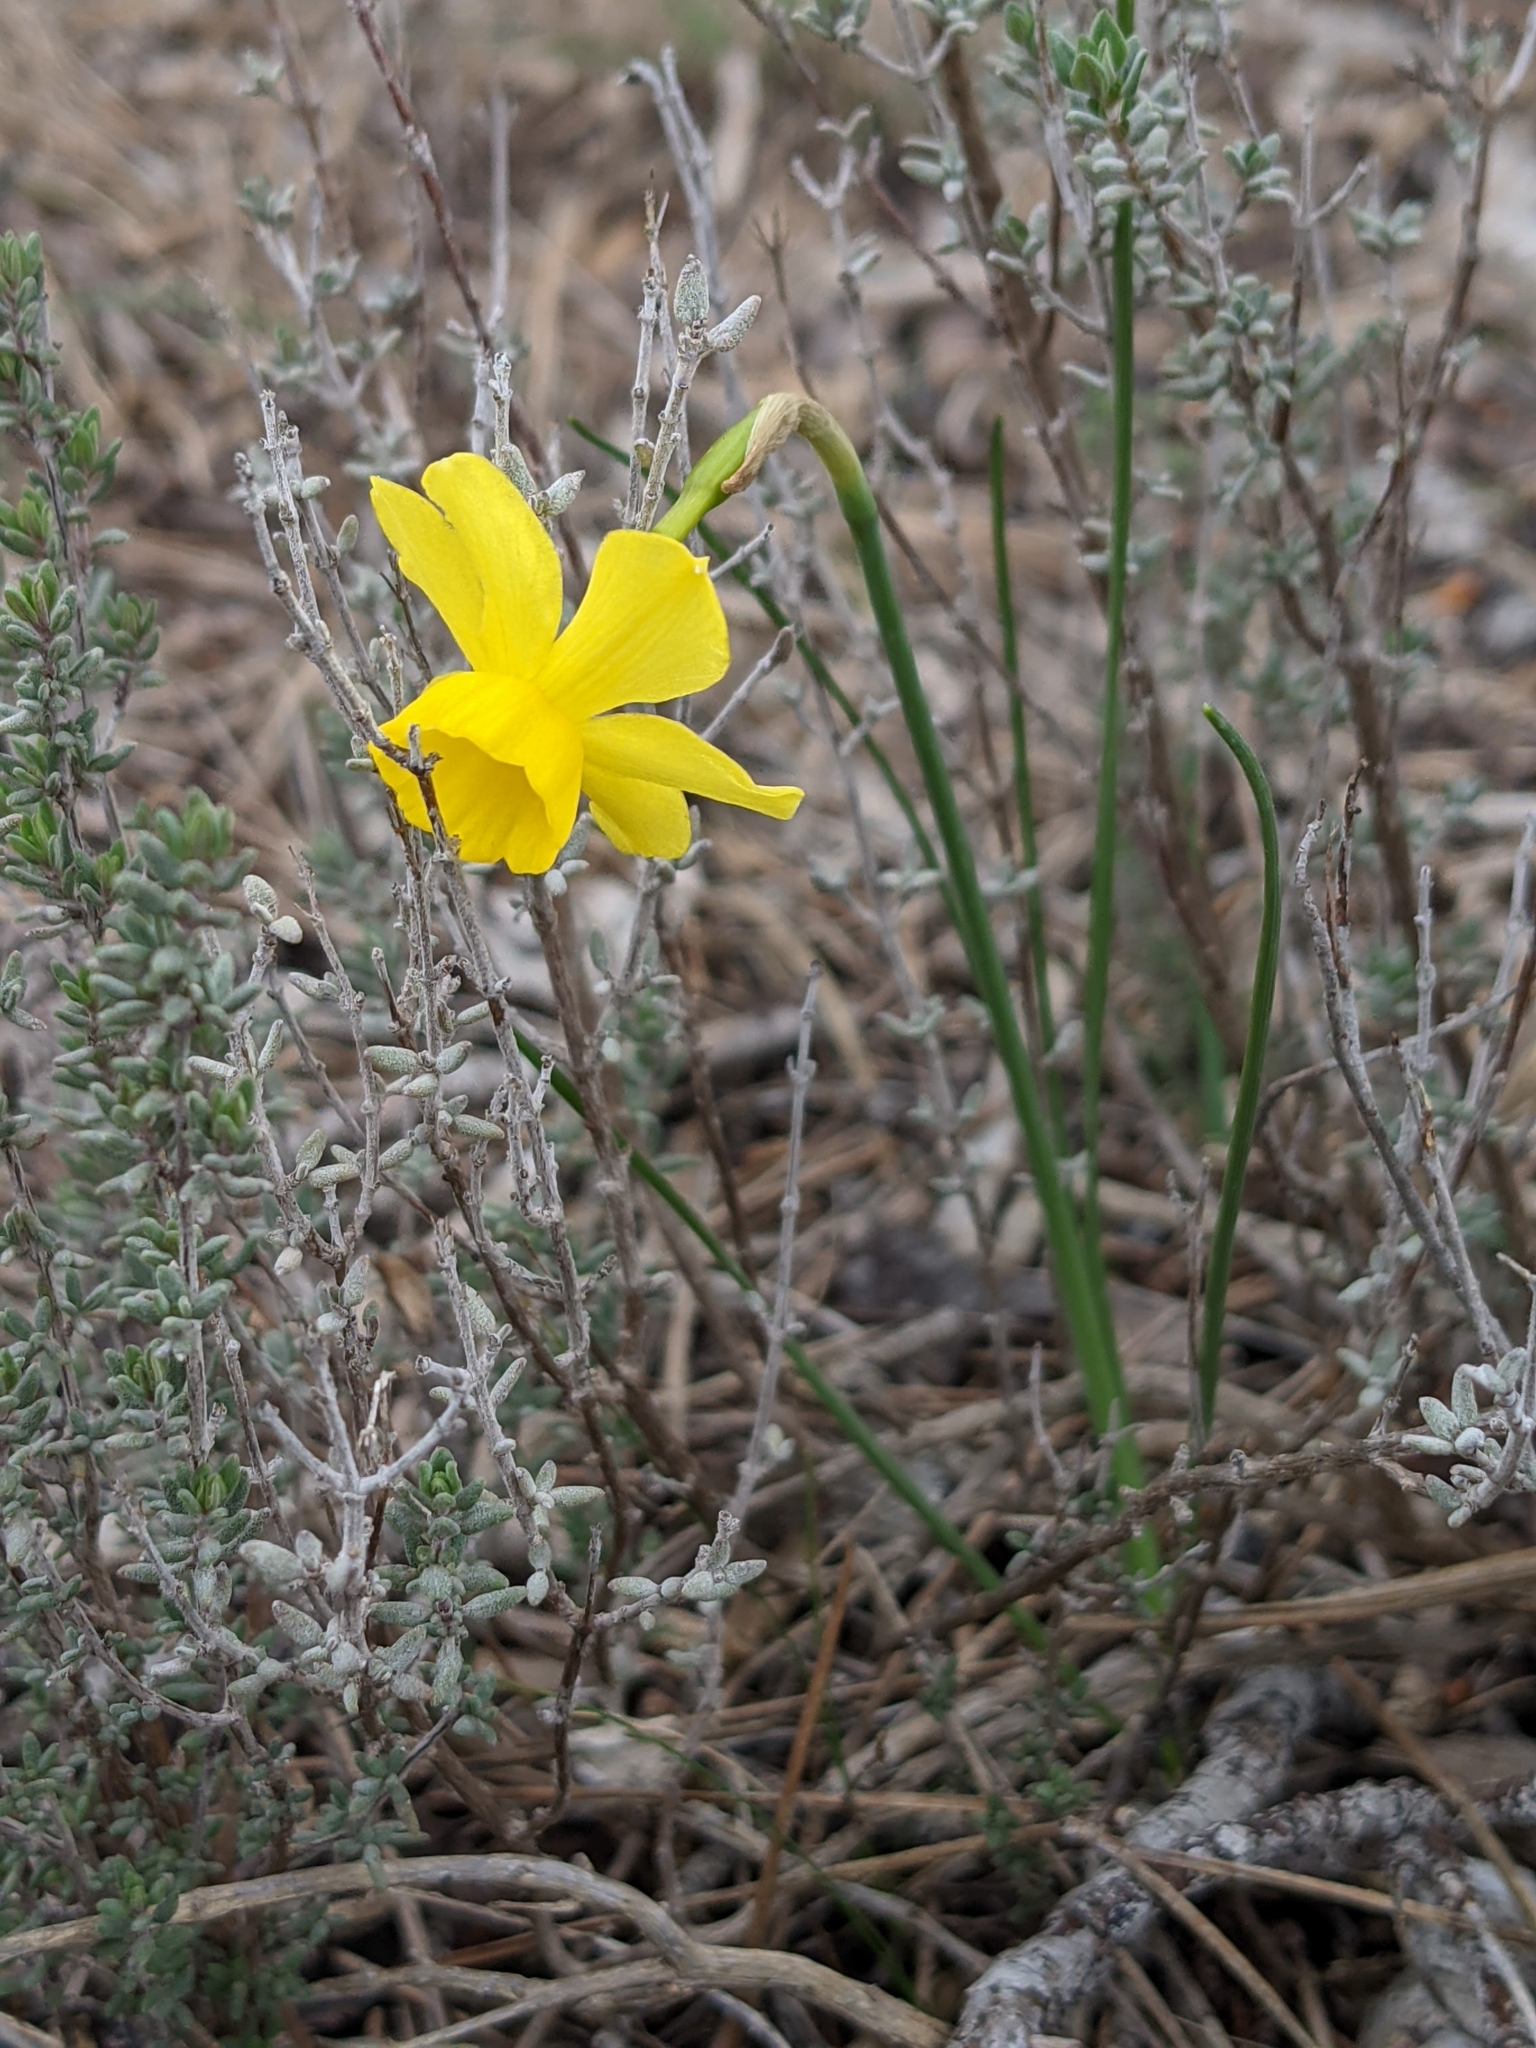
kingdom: Plantae
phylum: Tracheophyta
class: Liliopsida
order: Asparagales
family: Amaryllidaceae
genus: Narcissus
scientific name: Narcissus assoanus
